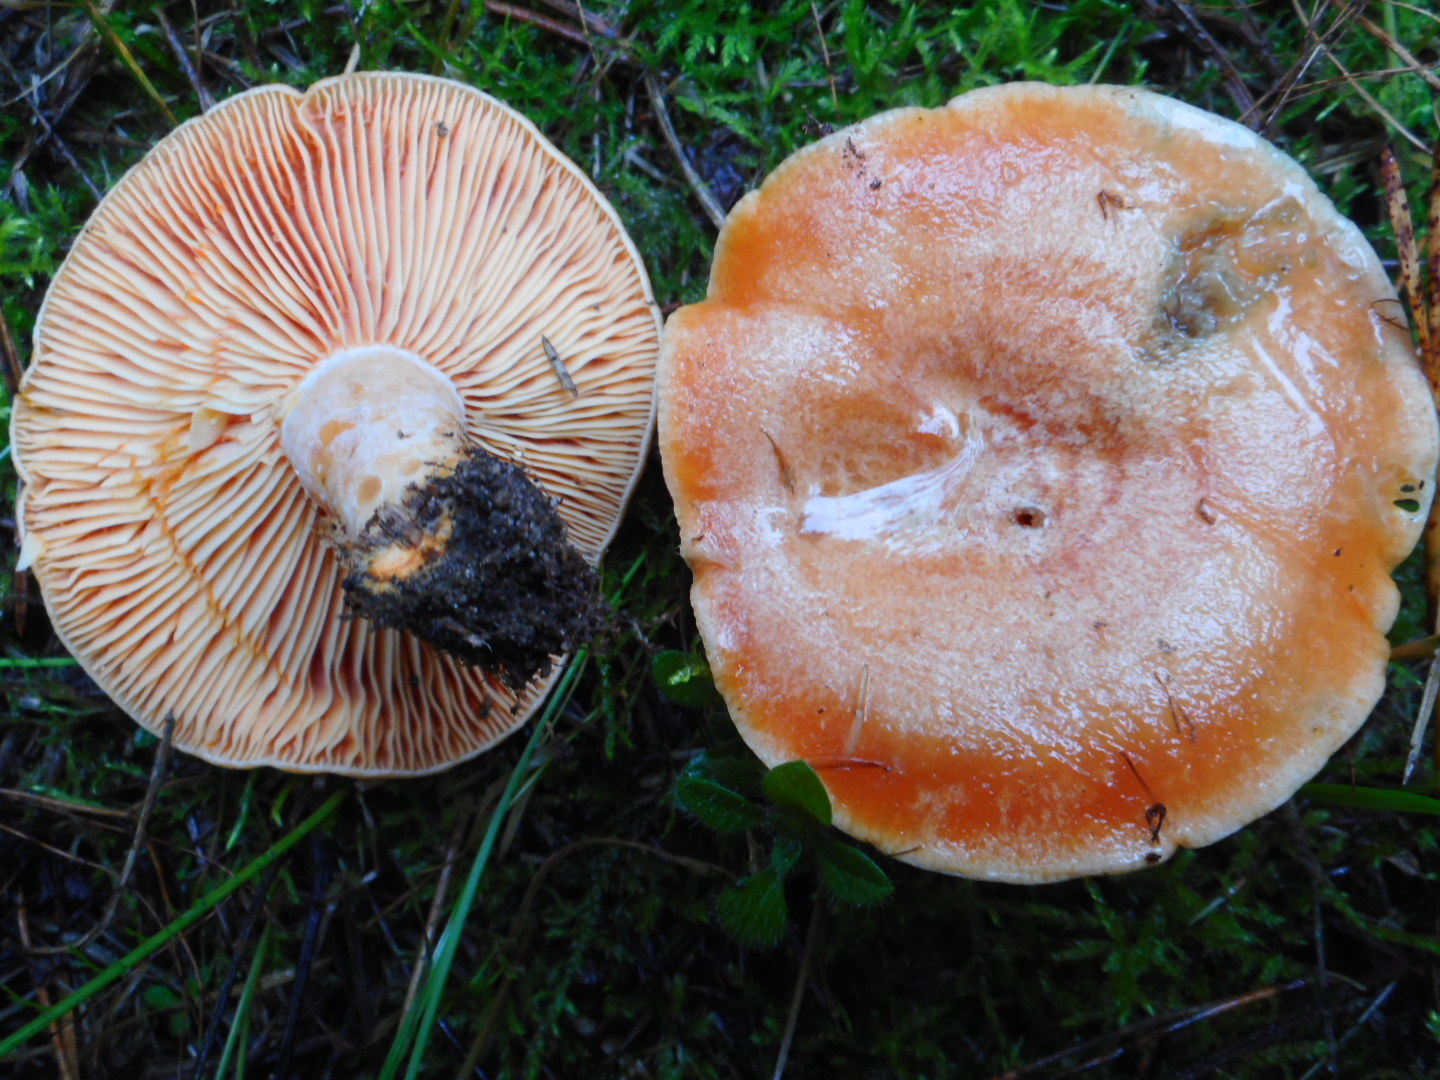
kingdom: Fungi
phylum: Basidiomycota
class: Agaricomycetes
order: Russulales
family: Russulaceae
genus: Lactarius
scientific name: Lactarius deliciosus
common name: Saffron milk-cap
